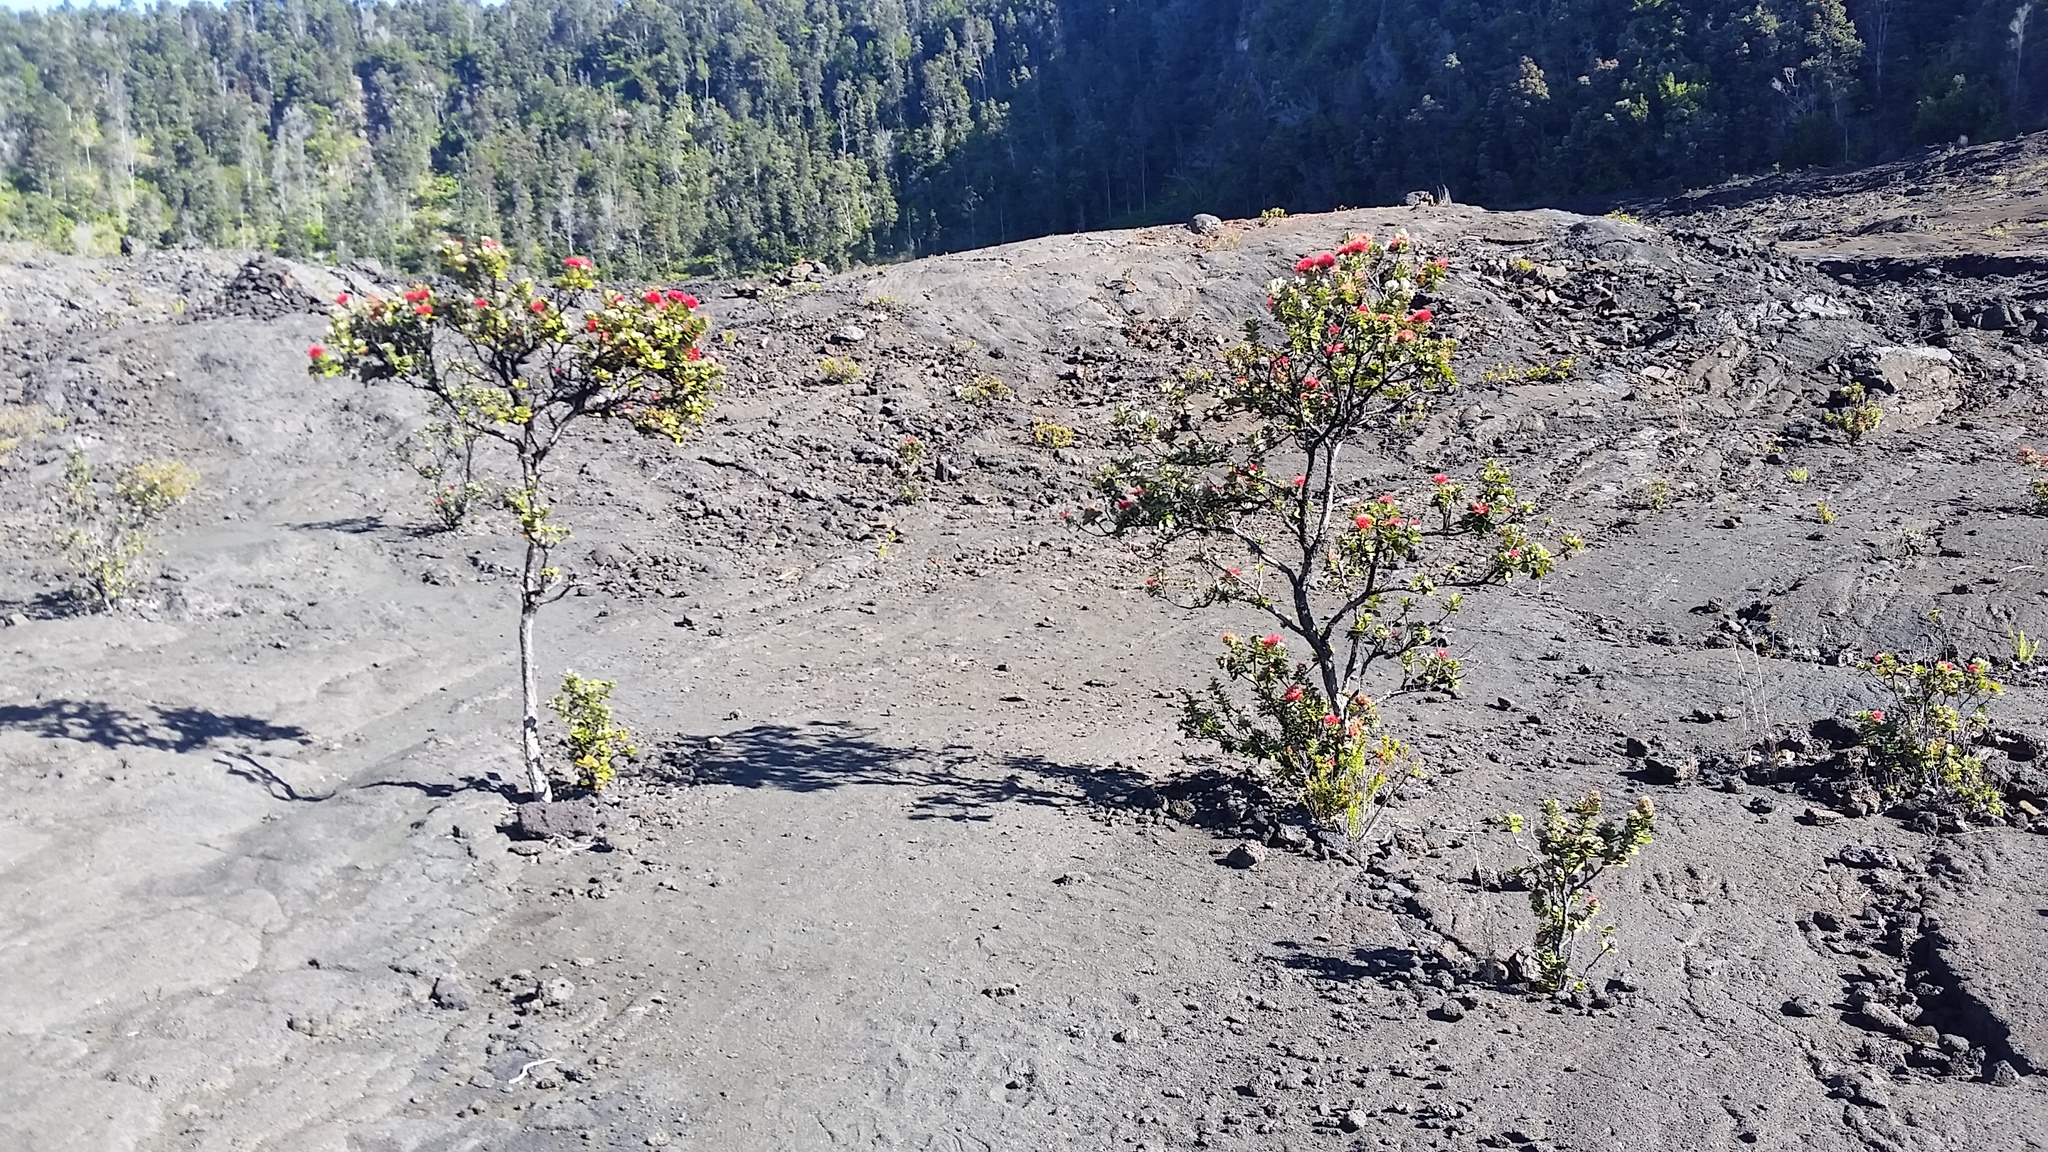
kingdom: Plantae
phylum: Tracheophyta
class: Magnoliopsida
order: Myrtales
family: Myrtaceae
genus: Metrosideros
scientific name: Metrosideros polymorpha
